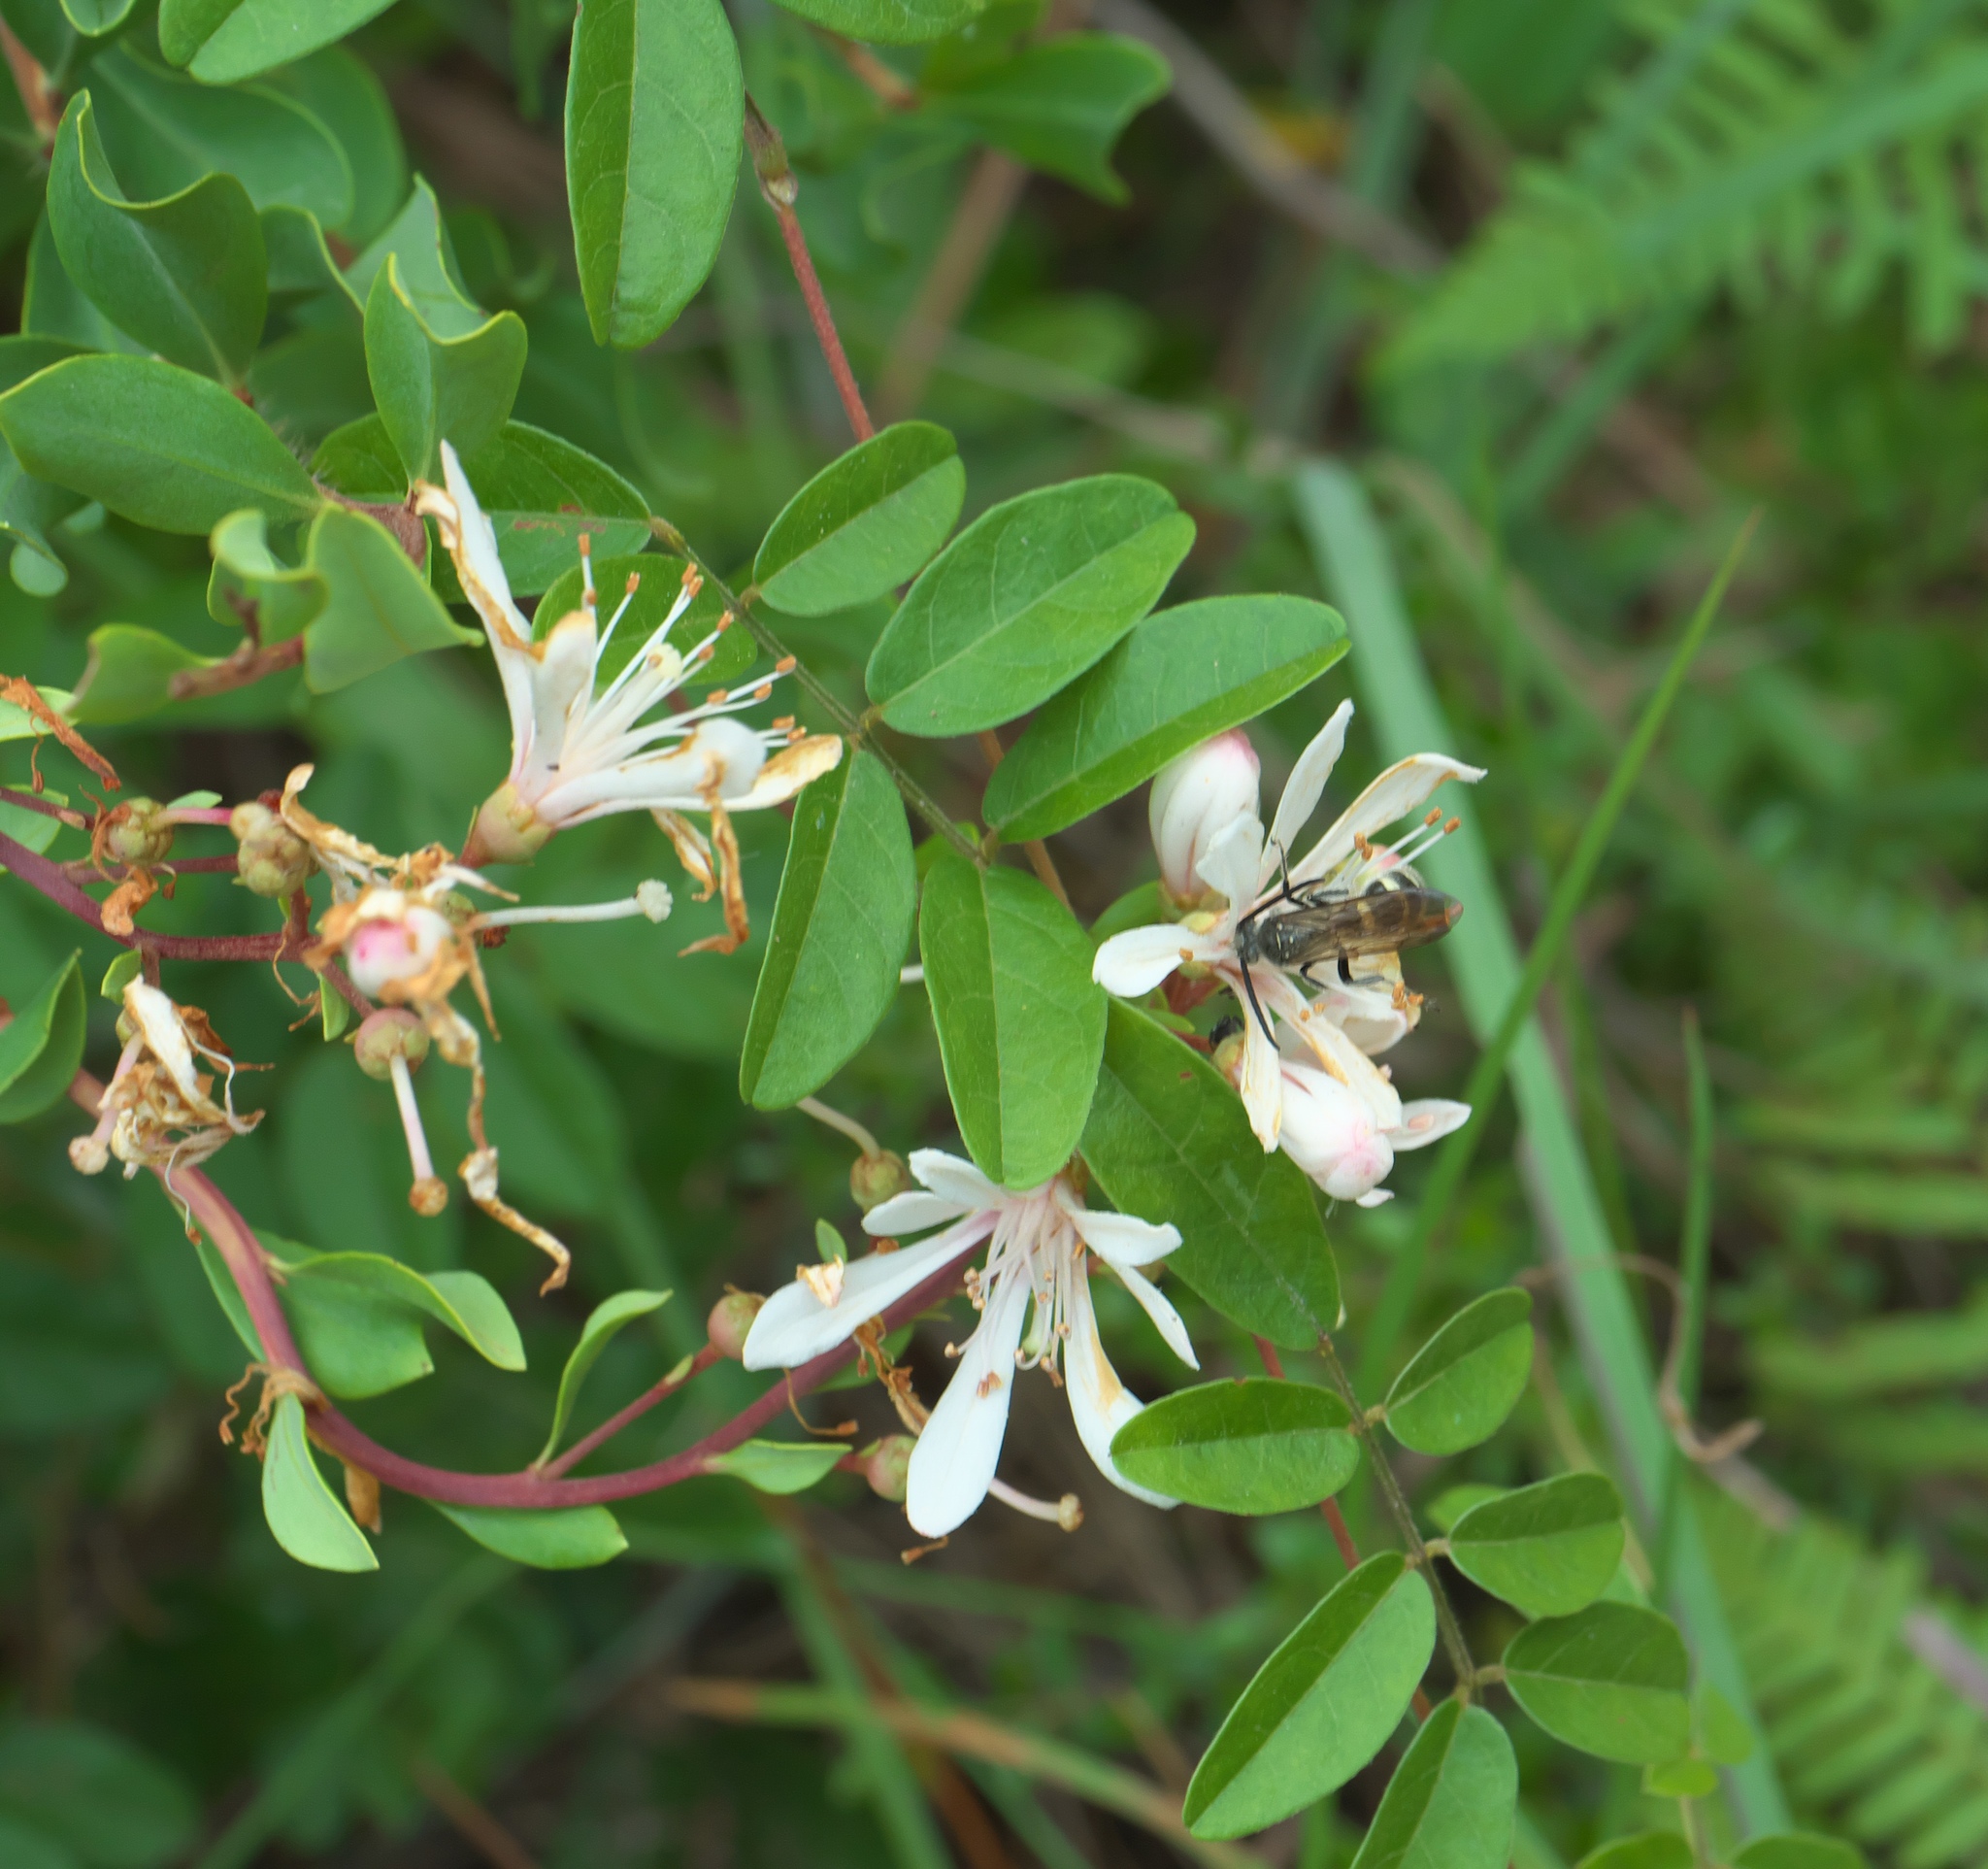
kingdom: Plantae
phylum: Tracheophyta
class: Magnoliopsida
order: Ericales
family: Ericaceae
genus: Bejaria
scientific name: Bejaria racemosa
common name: Tarflower
